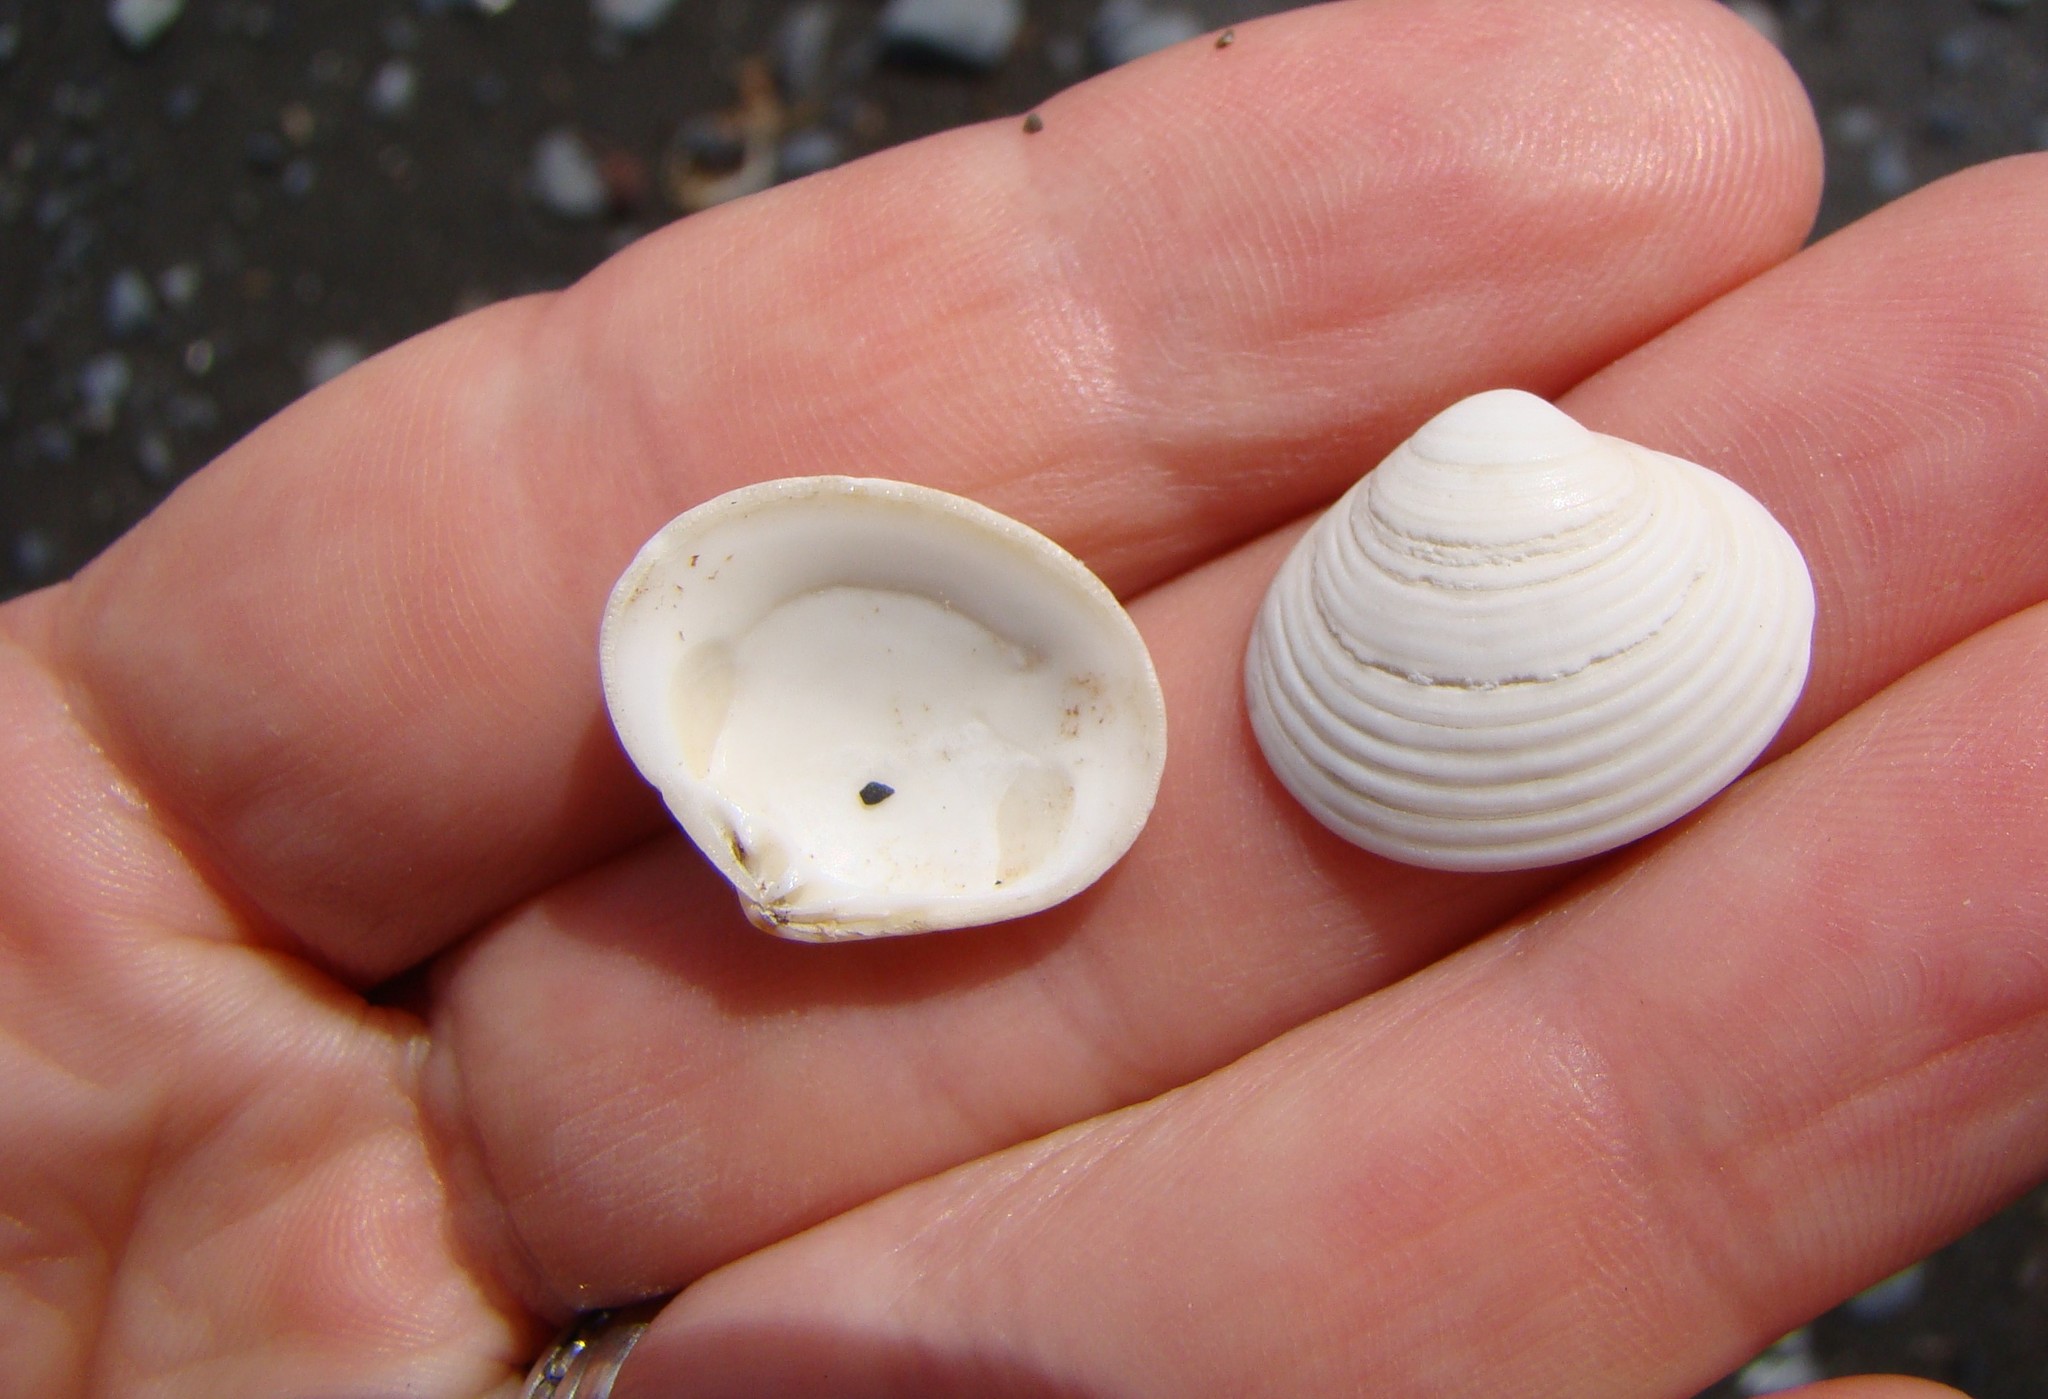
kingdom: Animalia
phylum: Mollusca
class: Bivalvia
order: Venerida
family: Veneridae
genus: Tawera
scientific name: Tawera spissa
